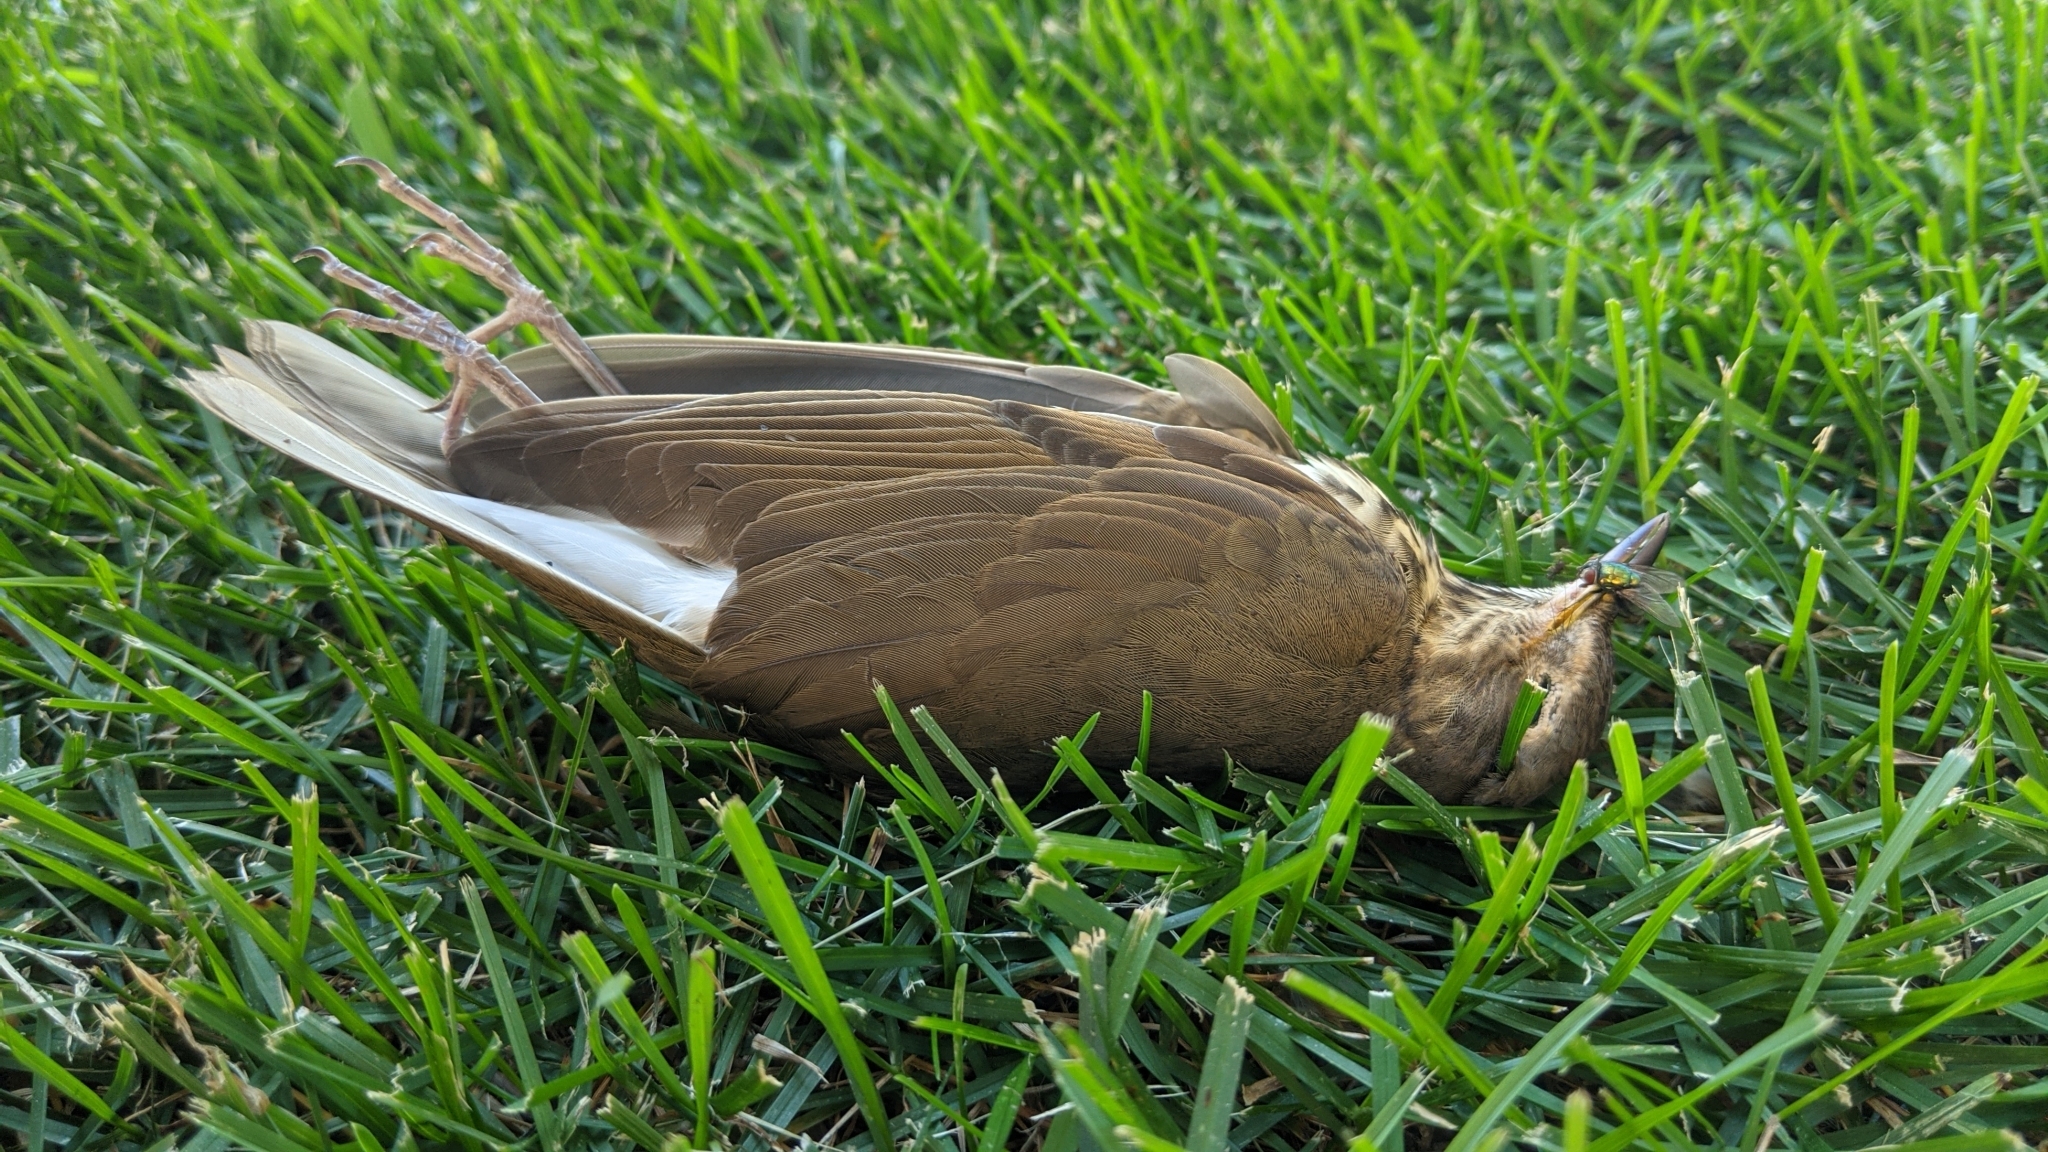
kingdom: Animalia
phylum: Chordata
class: Aves
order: Passeriformes
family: Turdidae
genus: Catharus
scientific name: Catharus ustulatus
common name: Swainson's thrush
